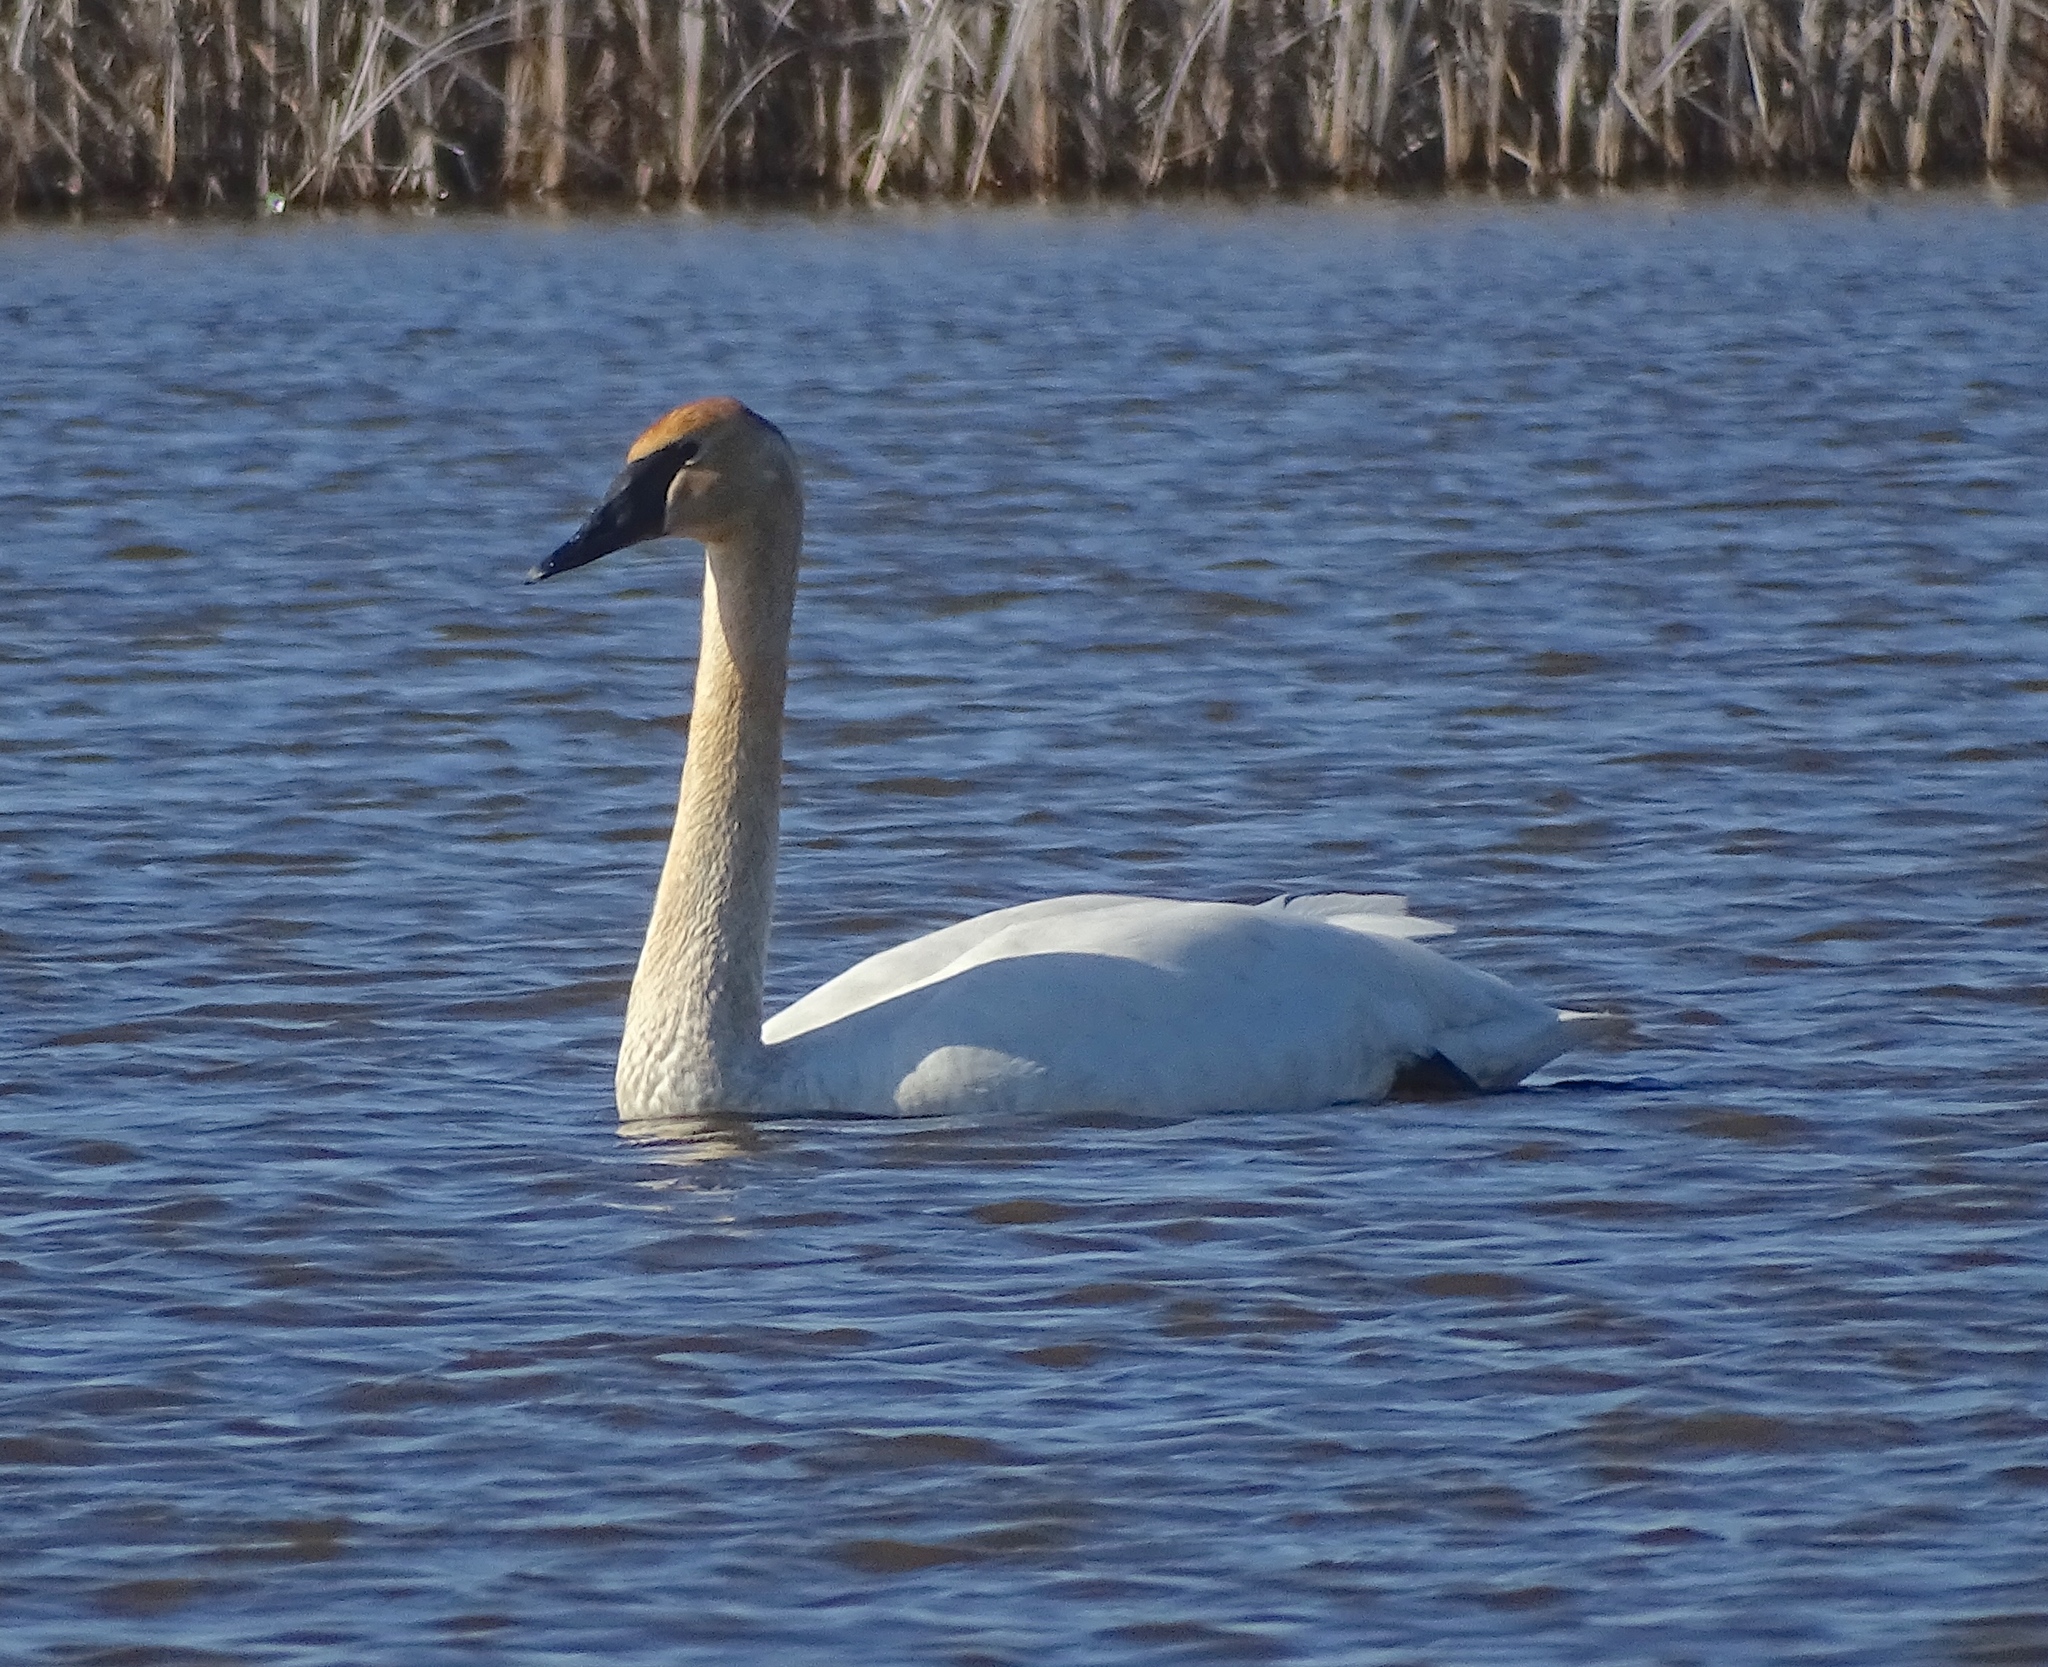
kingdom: Animalia
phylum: Chordata
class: Aves
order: Anseriformes
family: Anatidae
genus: Cygnus
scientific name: Cygnus buccinator
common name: Trumpeter swan
